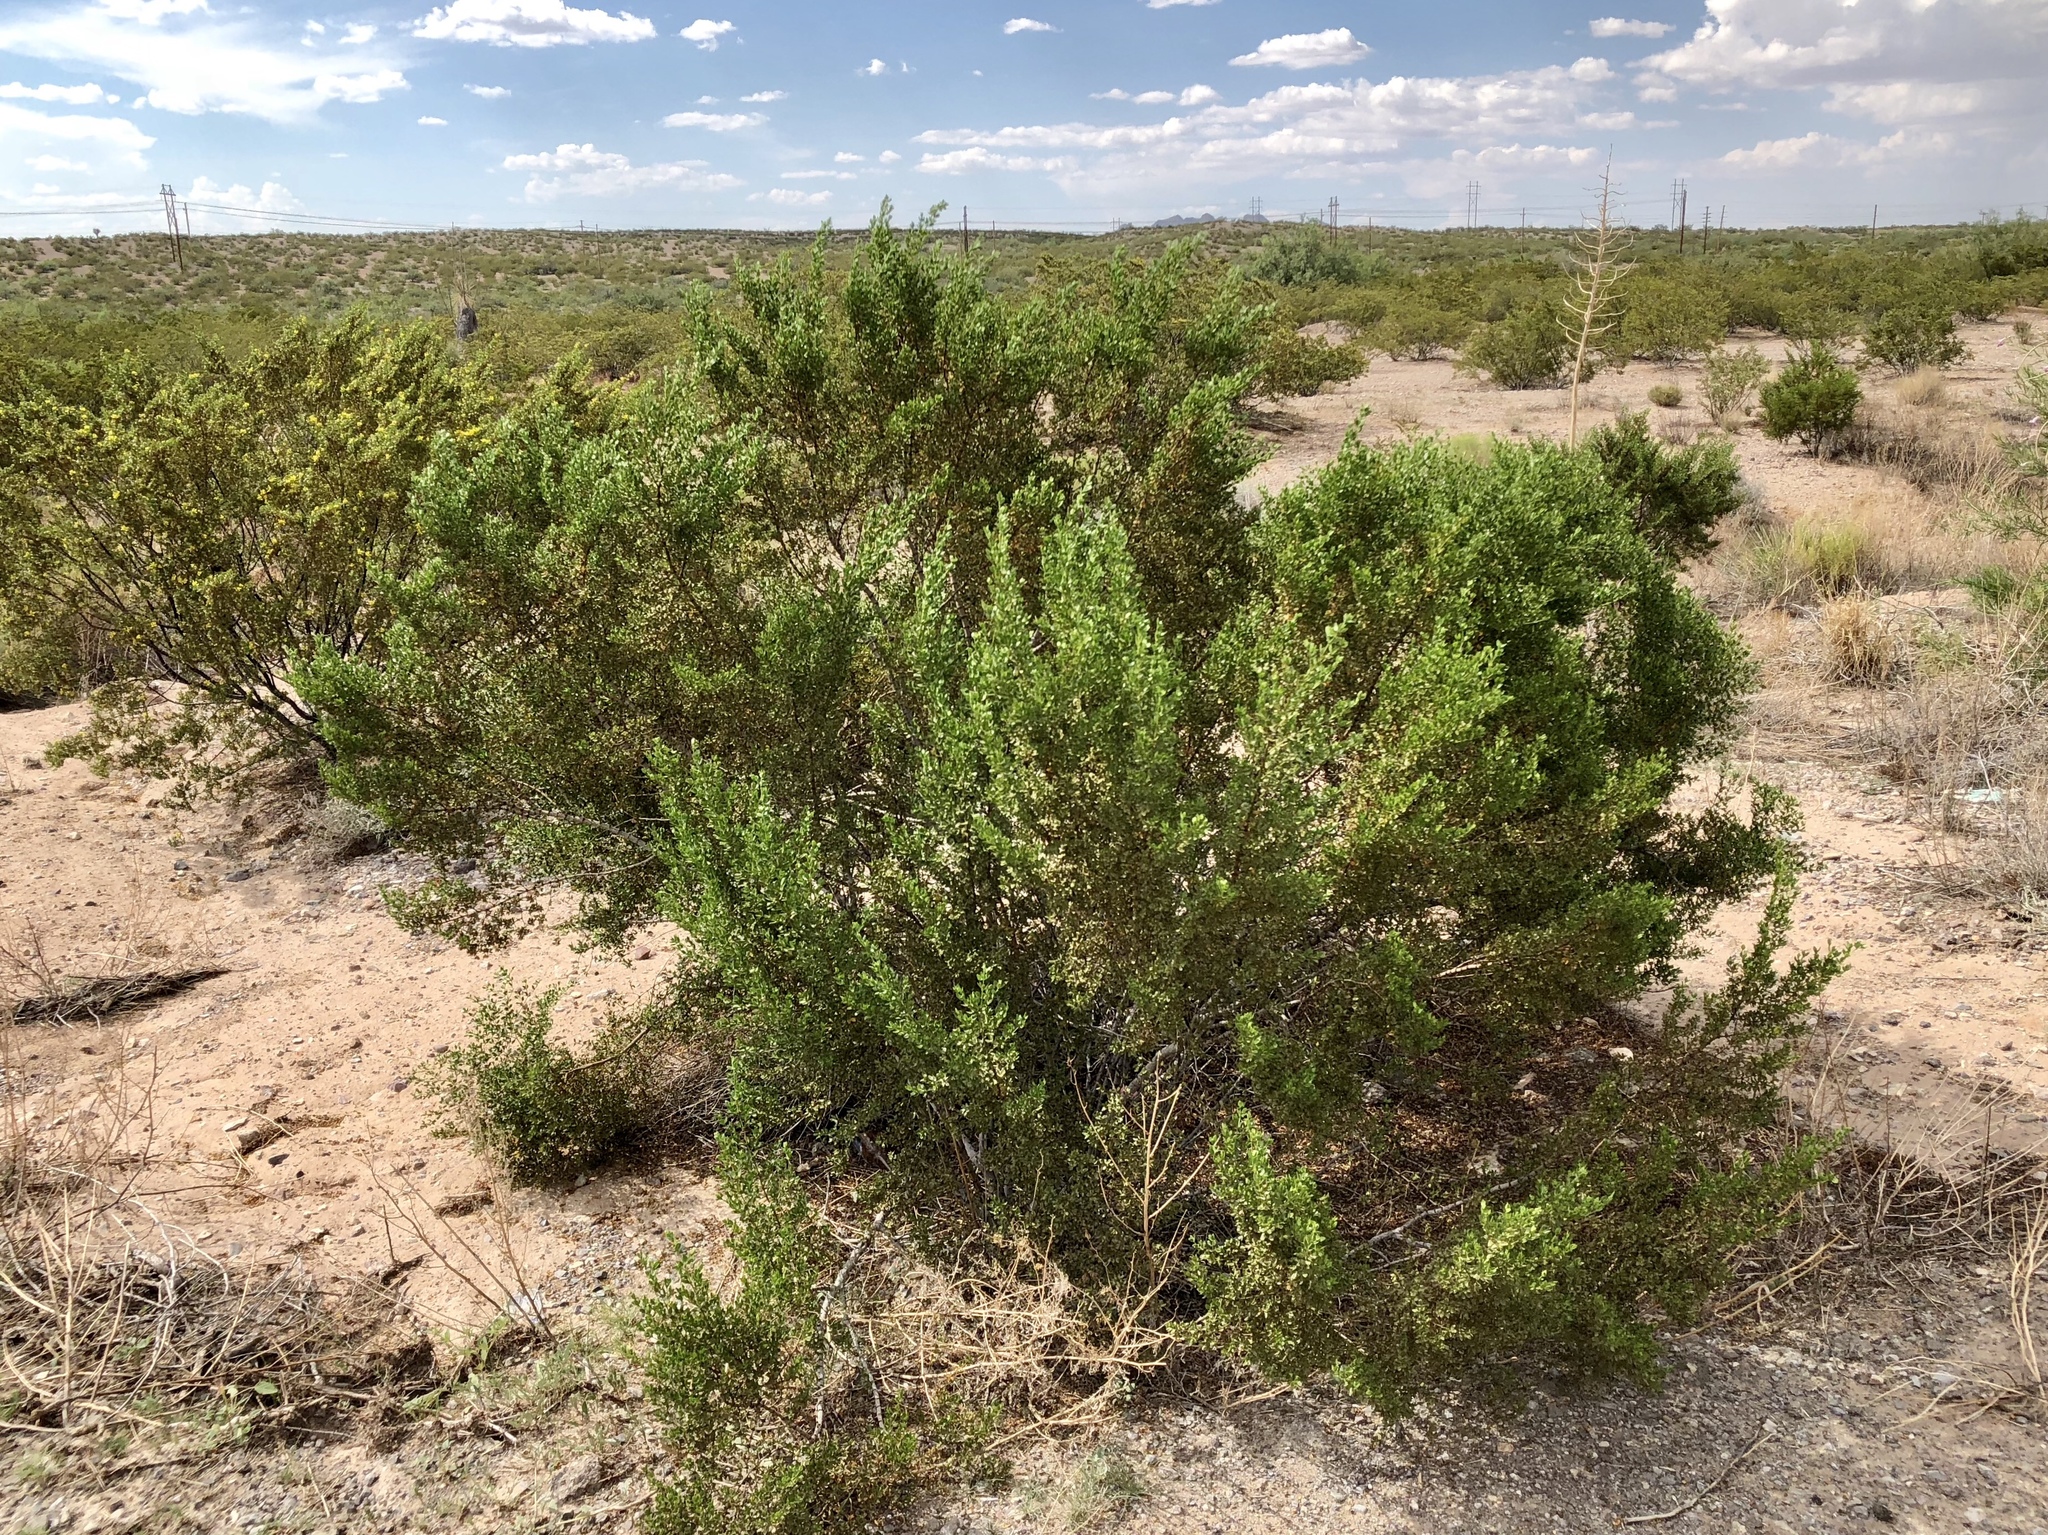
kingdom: Plantae
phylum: Tracheophyta
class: Magnoliopsida
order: Zygophyllales
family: Zygophyllaceae
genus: Larrea
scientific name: Larrea tridentata
